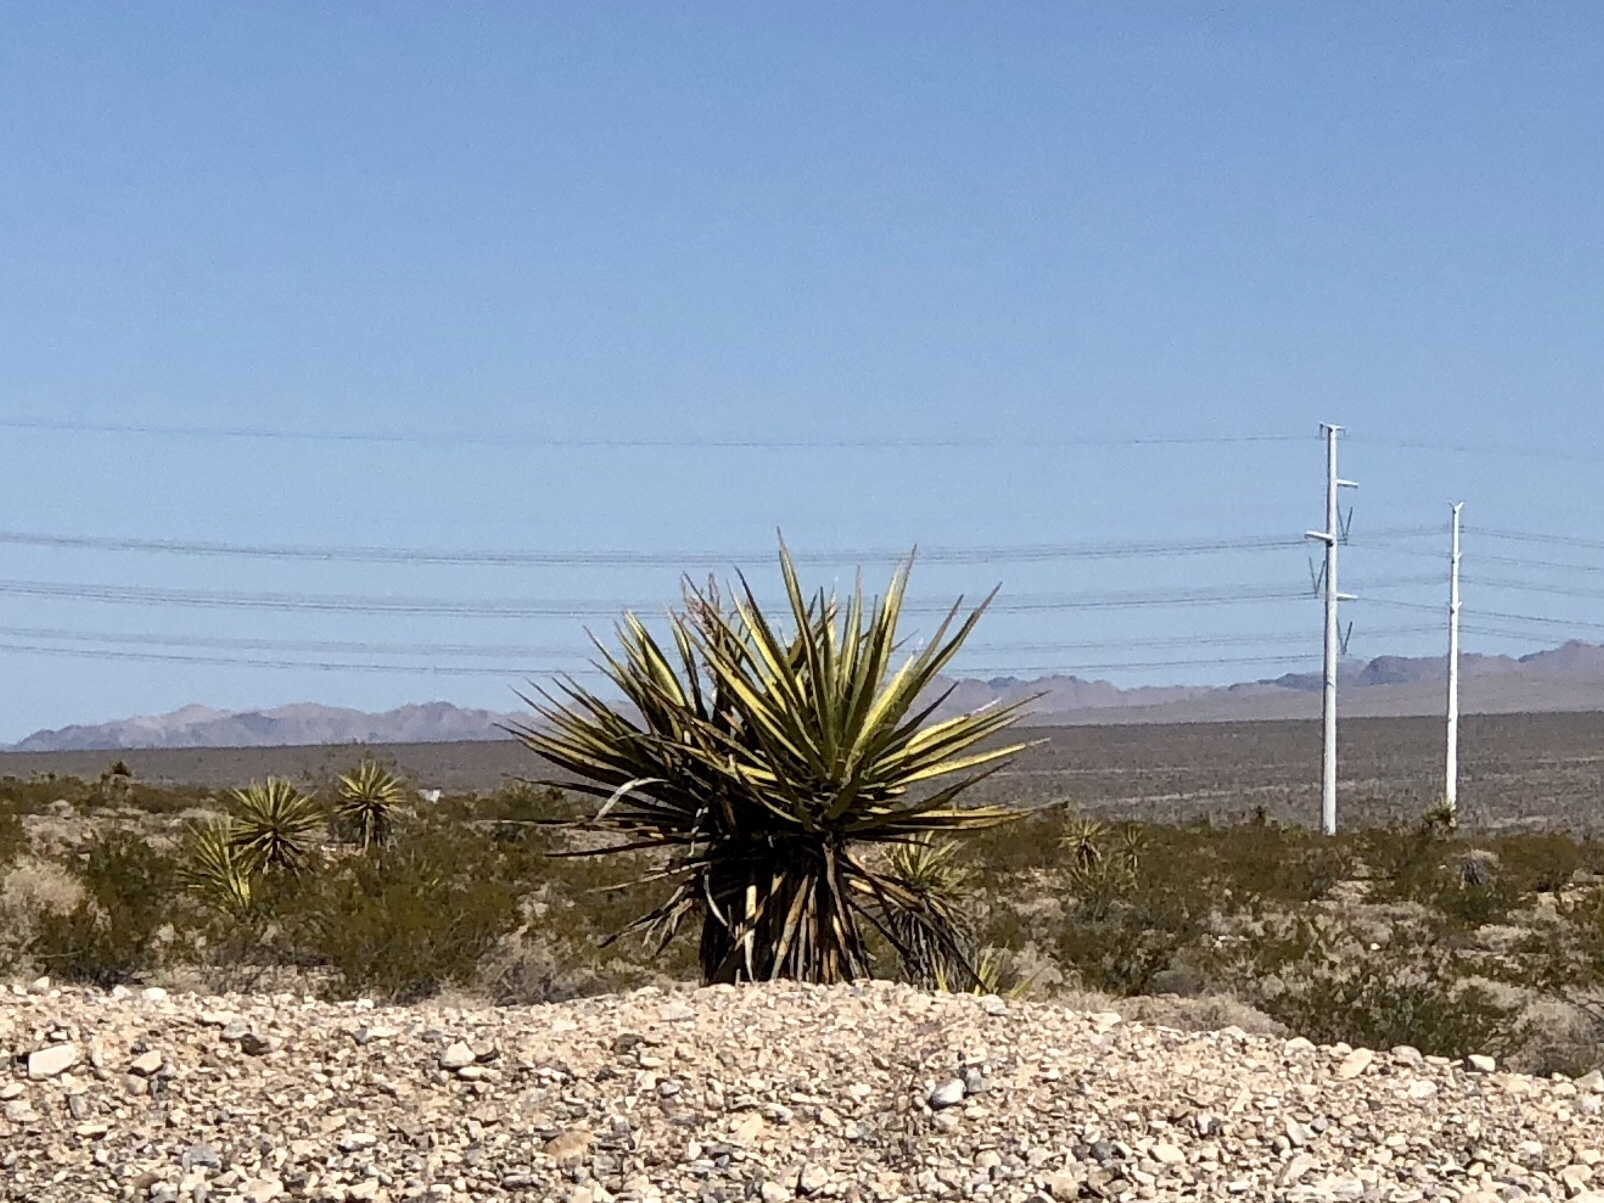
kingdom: Plantae
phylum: Tracheophyta
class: Liliopsida
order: Asparagales
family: Asparagaceae
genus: Yucca
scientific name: Yucca schidigera
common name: Mojave yucca
